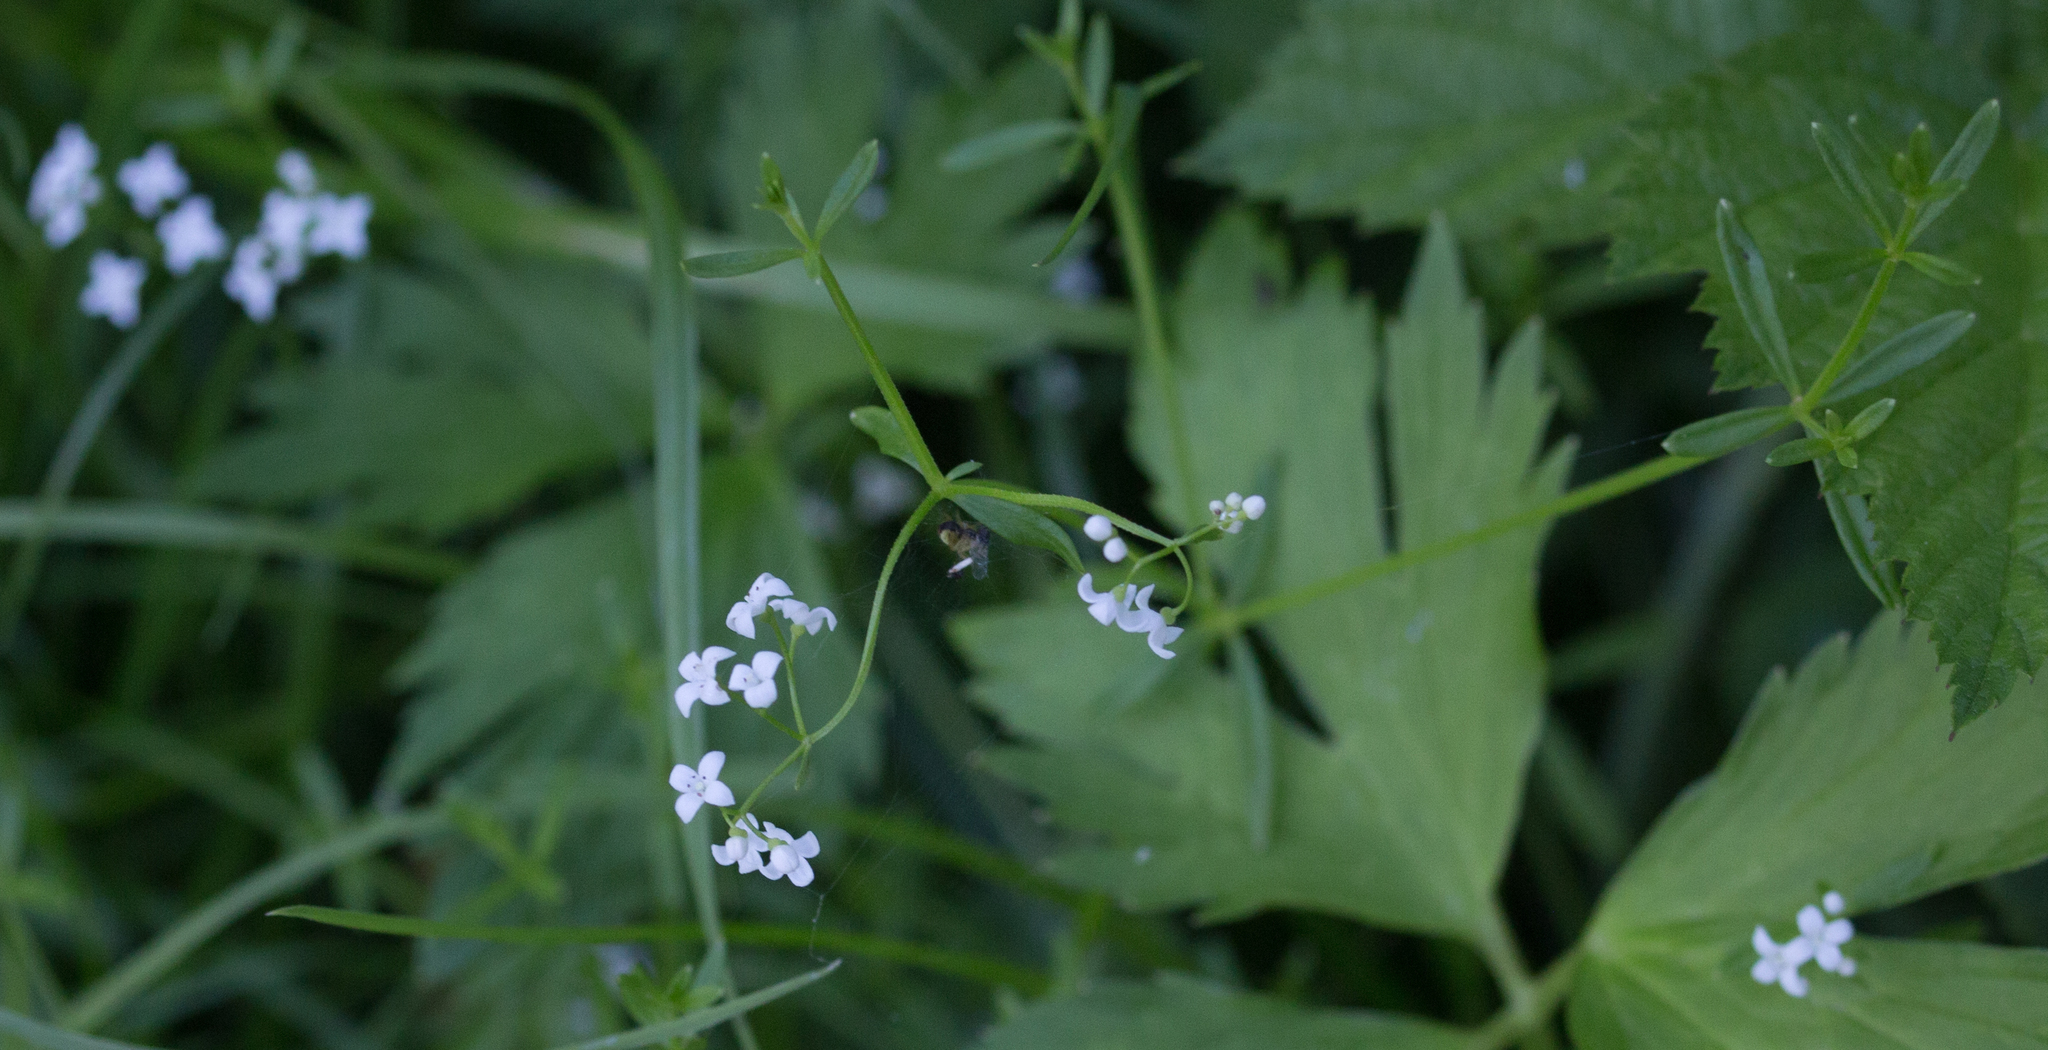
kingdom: Plantae
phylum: Tracheophyta
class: Magnoliopsida
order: Gentianales
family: Rubiaceae
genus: Galium
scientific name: Galium palustre
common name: Common marsh-bedstraw
